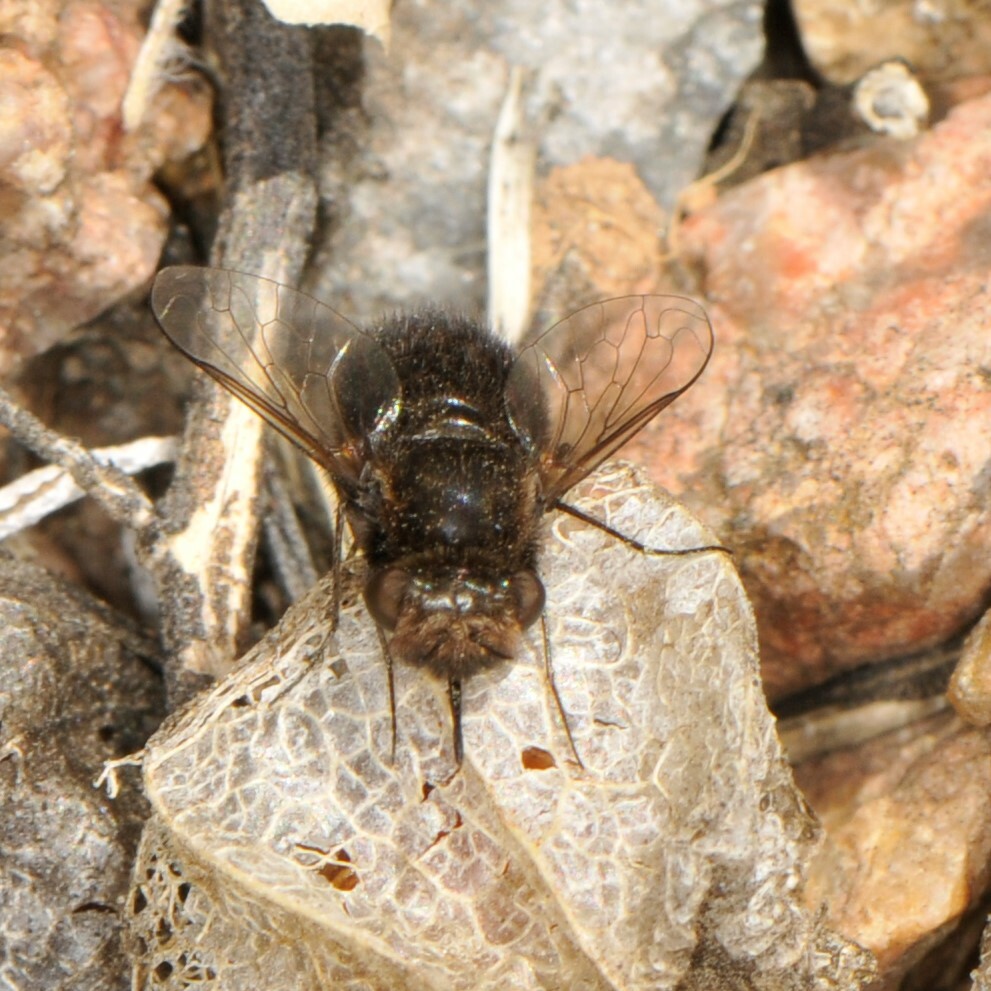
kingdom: Animalia
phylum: Arthropoda
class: Insecta
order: Diptera
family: Bombyliidae
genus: Pantarbes
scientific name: Pantarbes willistoni
